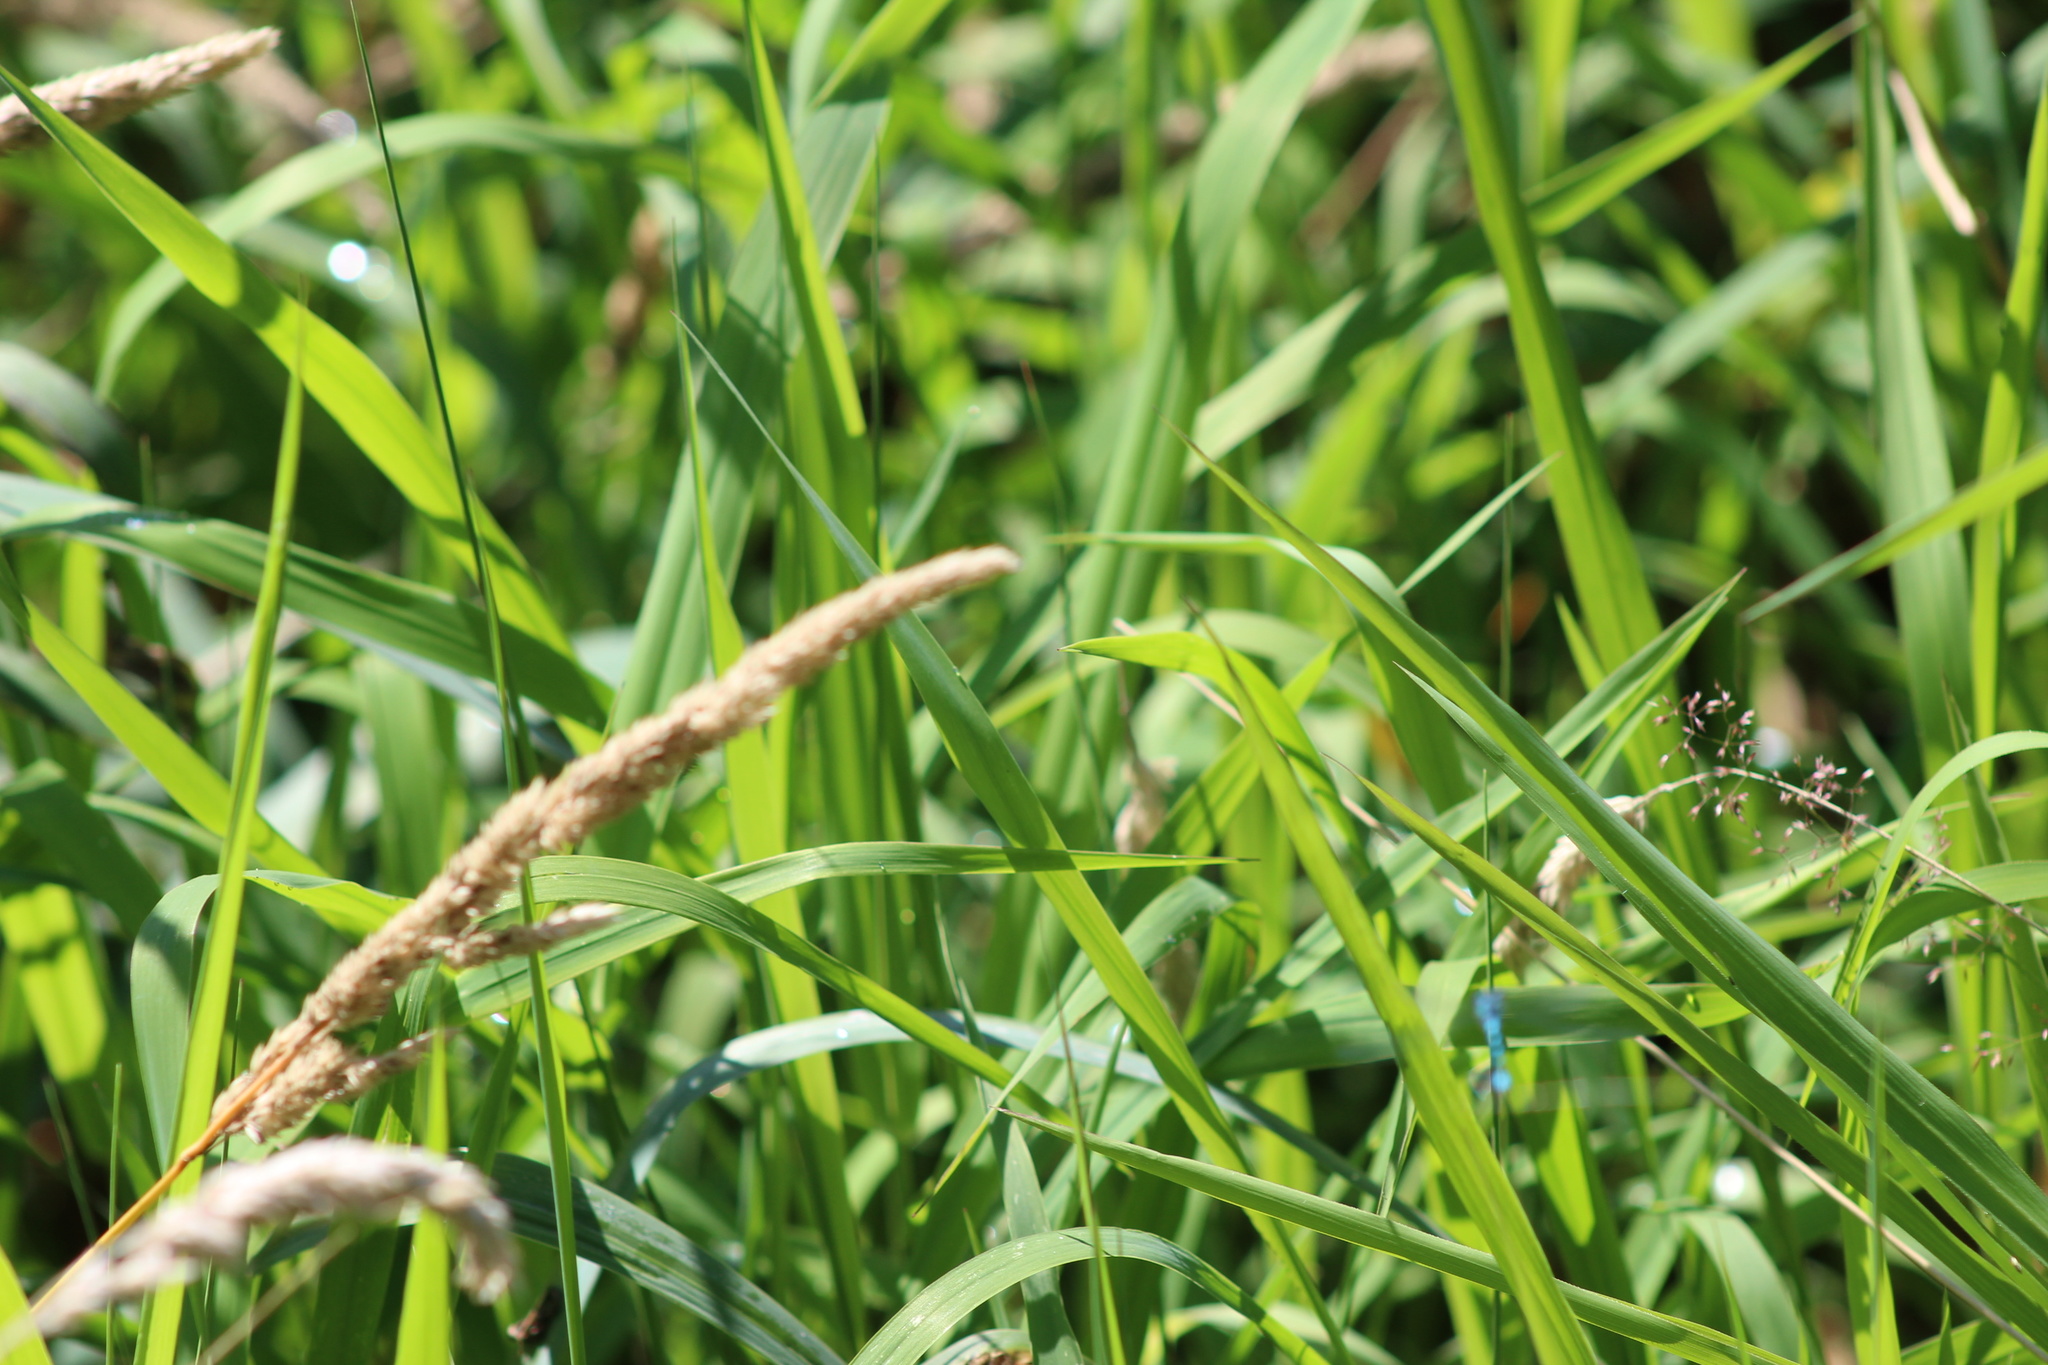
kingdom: Plantae
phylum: Tracheophyta
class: Liliopsida
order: Poales
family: Poaceae
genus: Phalaris
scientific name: Phalaris arundinacea
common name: Reed canary-grass
